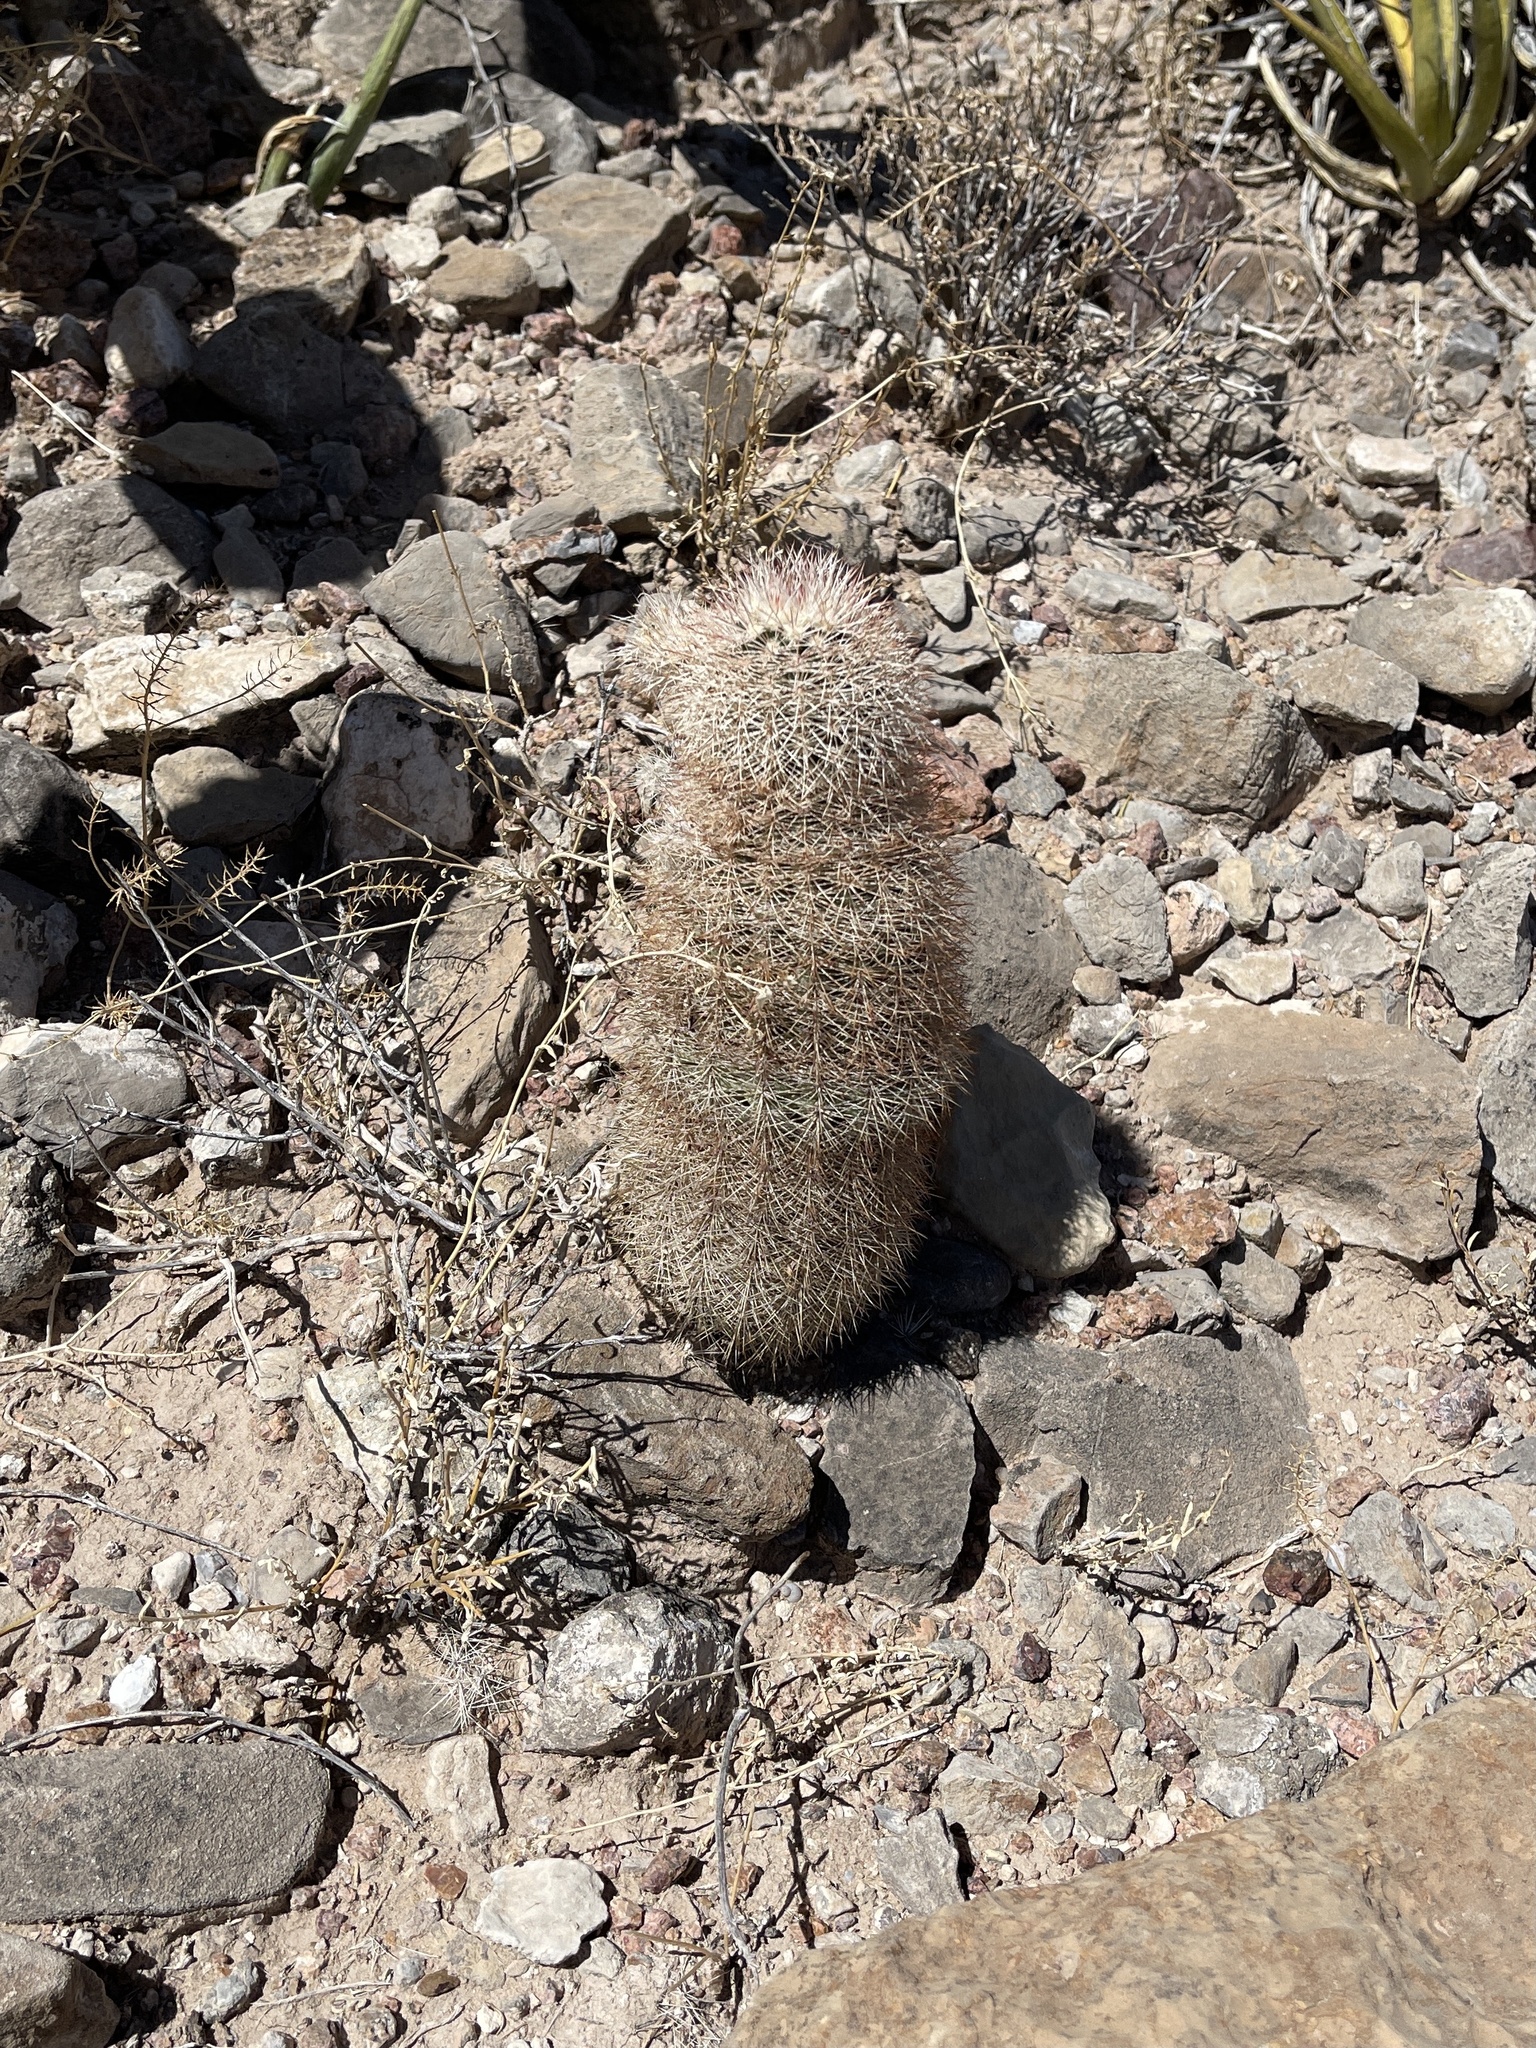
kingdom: Plantae
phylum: Tracheophyta
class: Magnoliopsida
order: Caryophyllales
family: Cactaceae
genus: Echinocereus
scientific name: Echinocereus dasyacanthus
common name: Spiny hedgehog cactus
